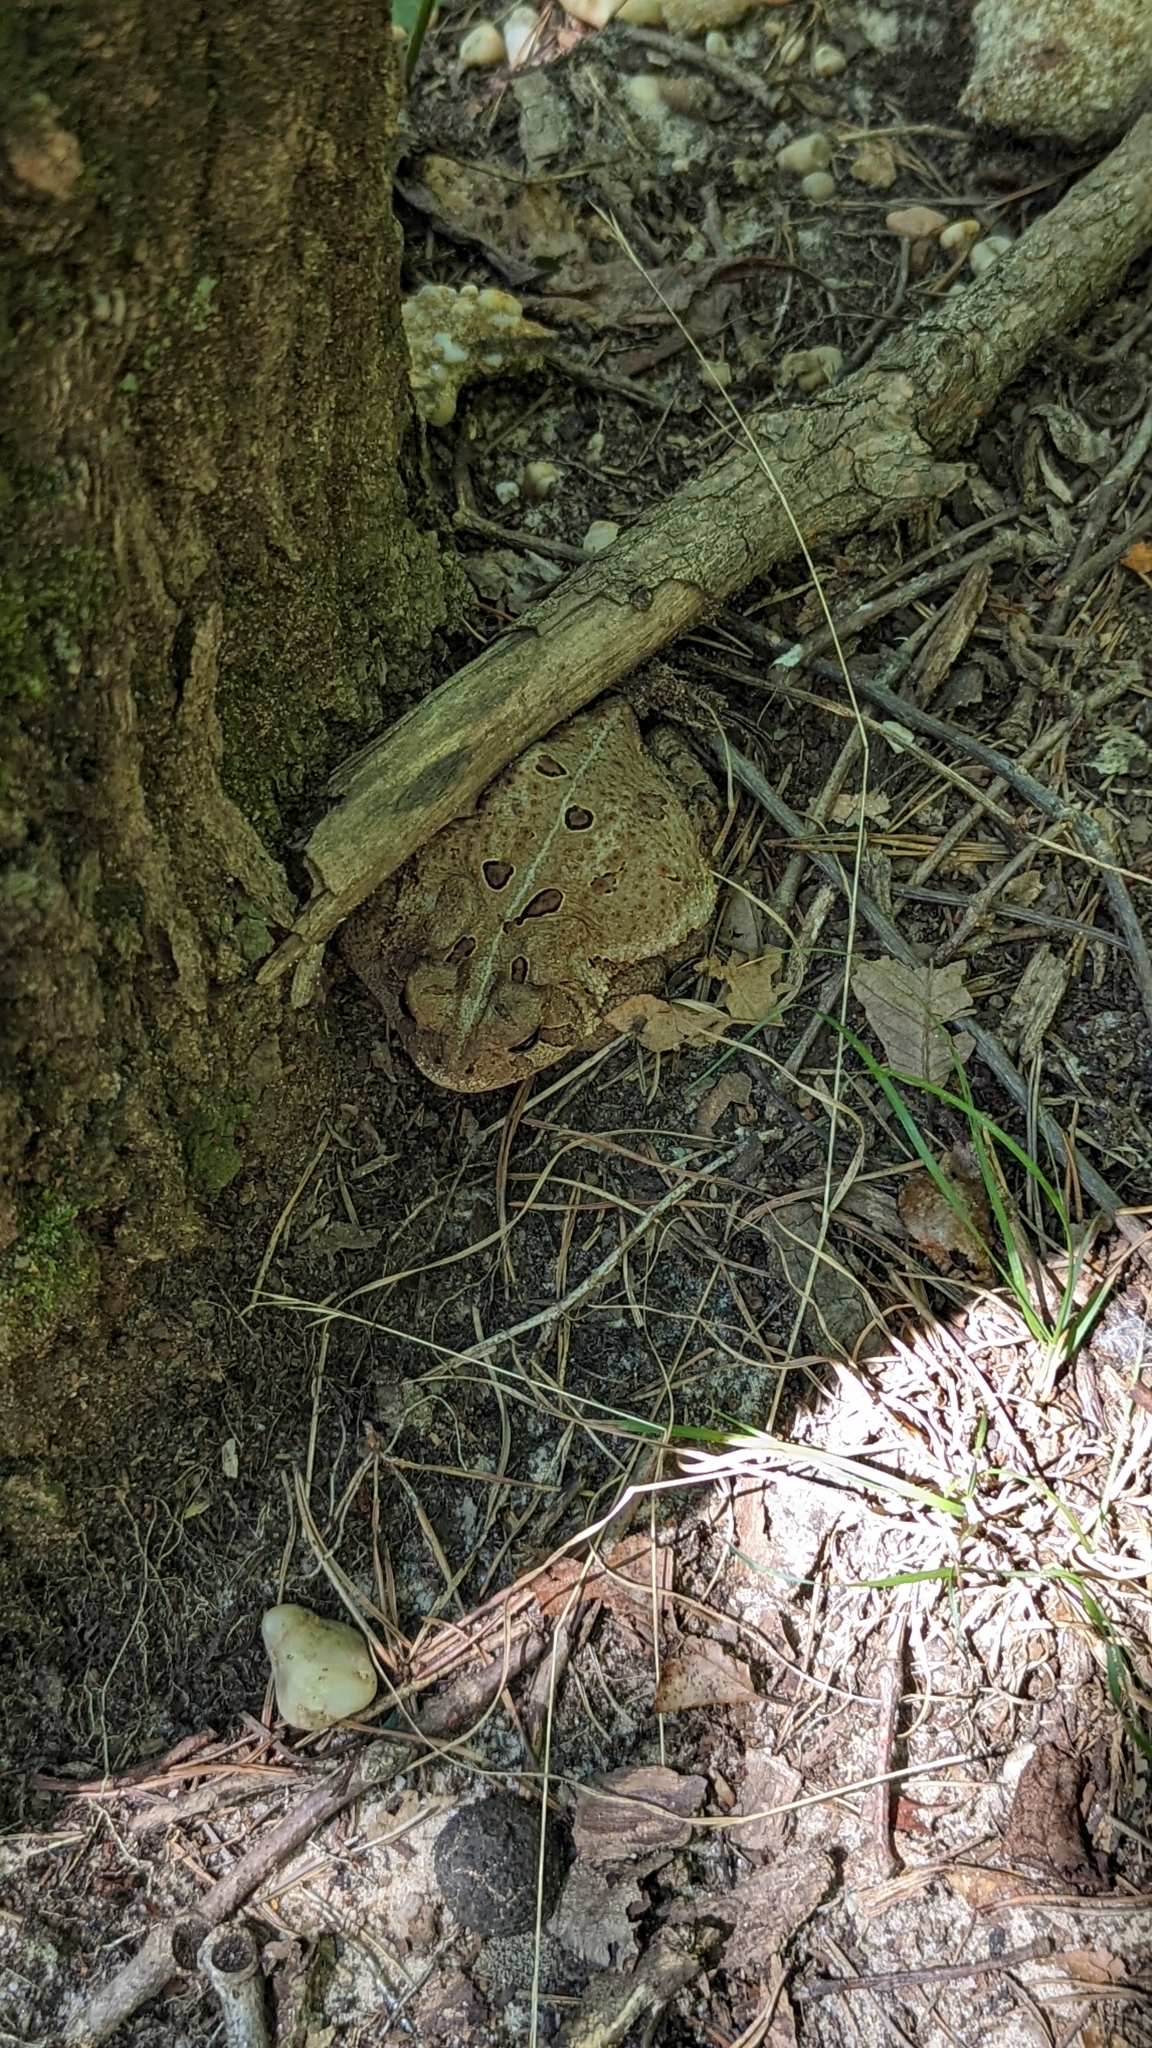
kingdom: Animalia
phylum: Chordata
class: Amphibia
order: Anura
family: Bufonidae
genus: Anaxyrus
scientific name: Anaxyrus americanus
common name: American toad
